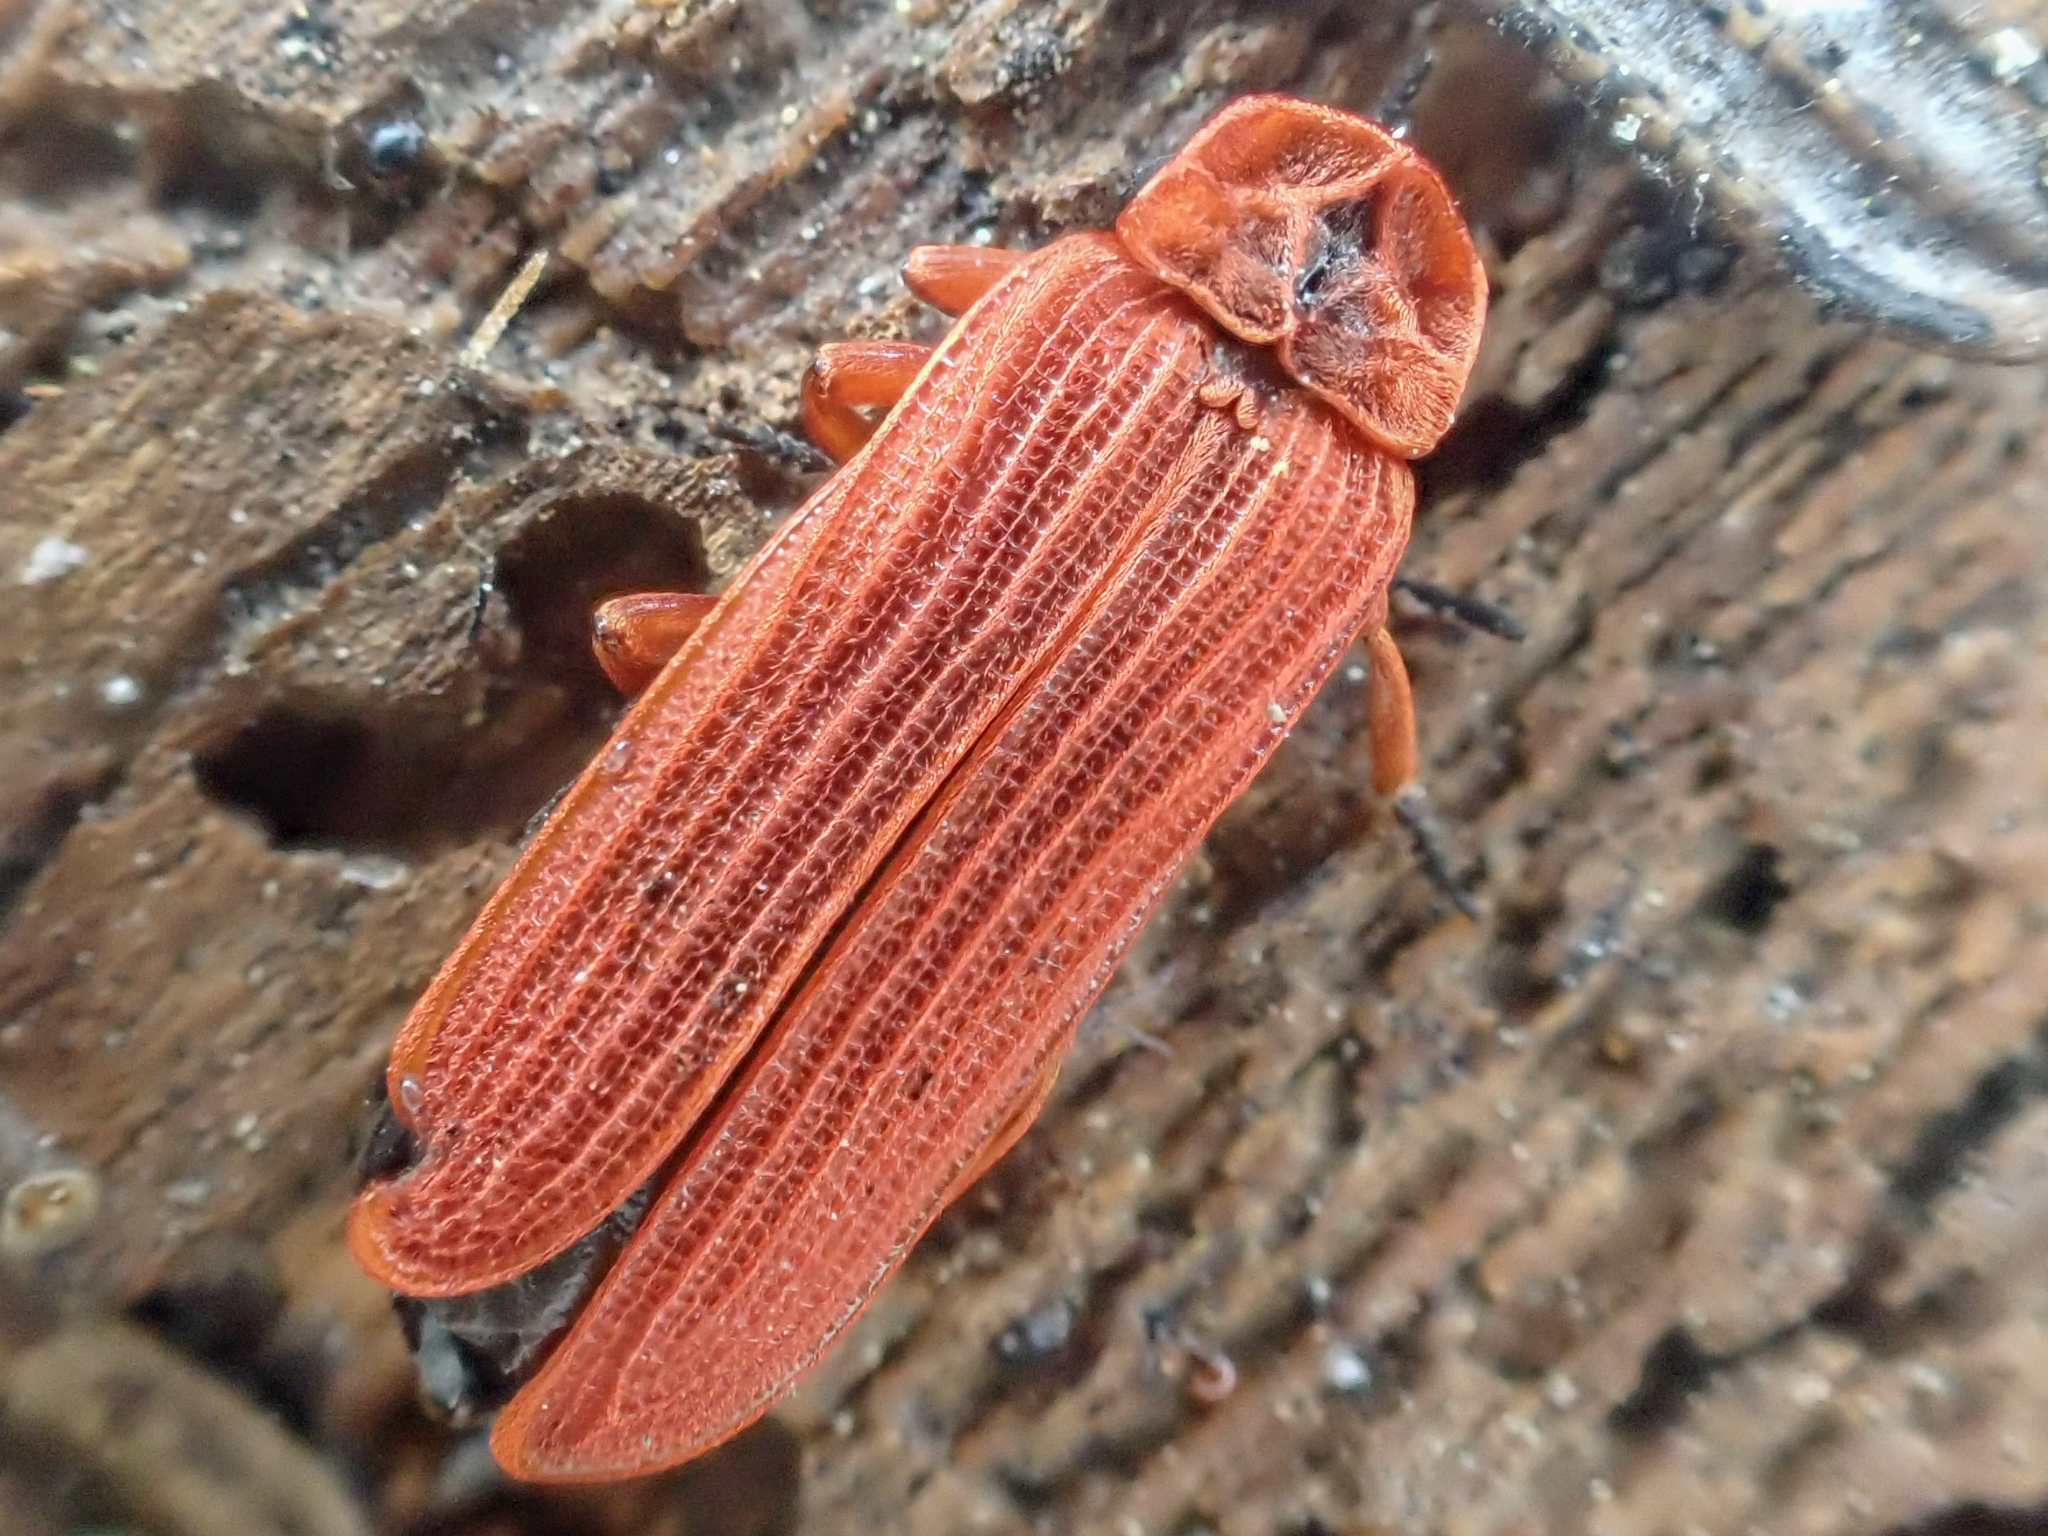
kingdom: Animalia
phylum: Arthropoda
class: Insecta
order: Coleoptera
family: Lycidae
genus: Dictyoptera
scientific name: Dictyoptera simplicipes
